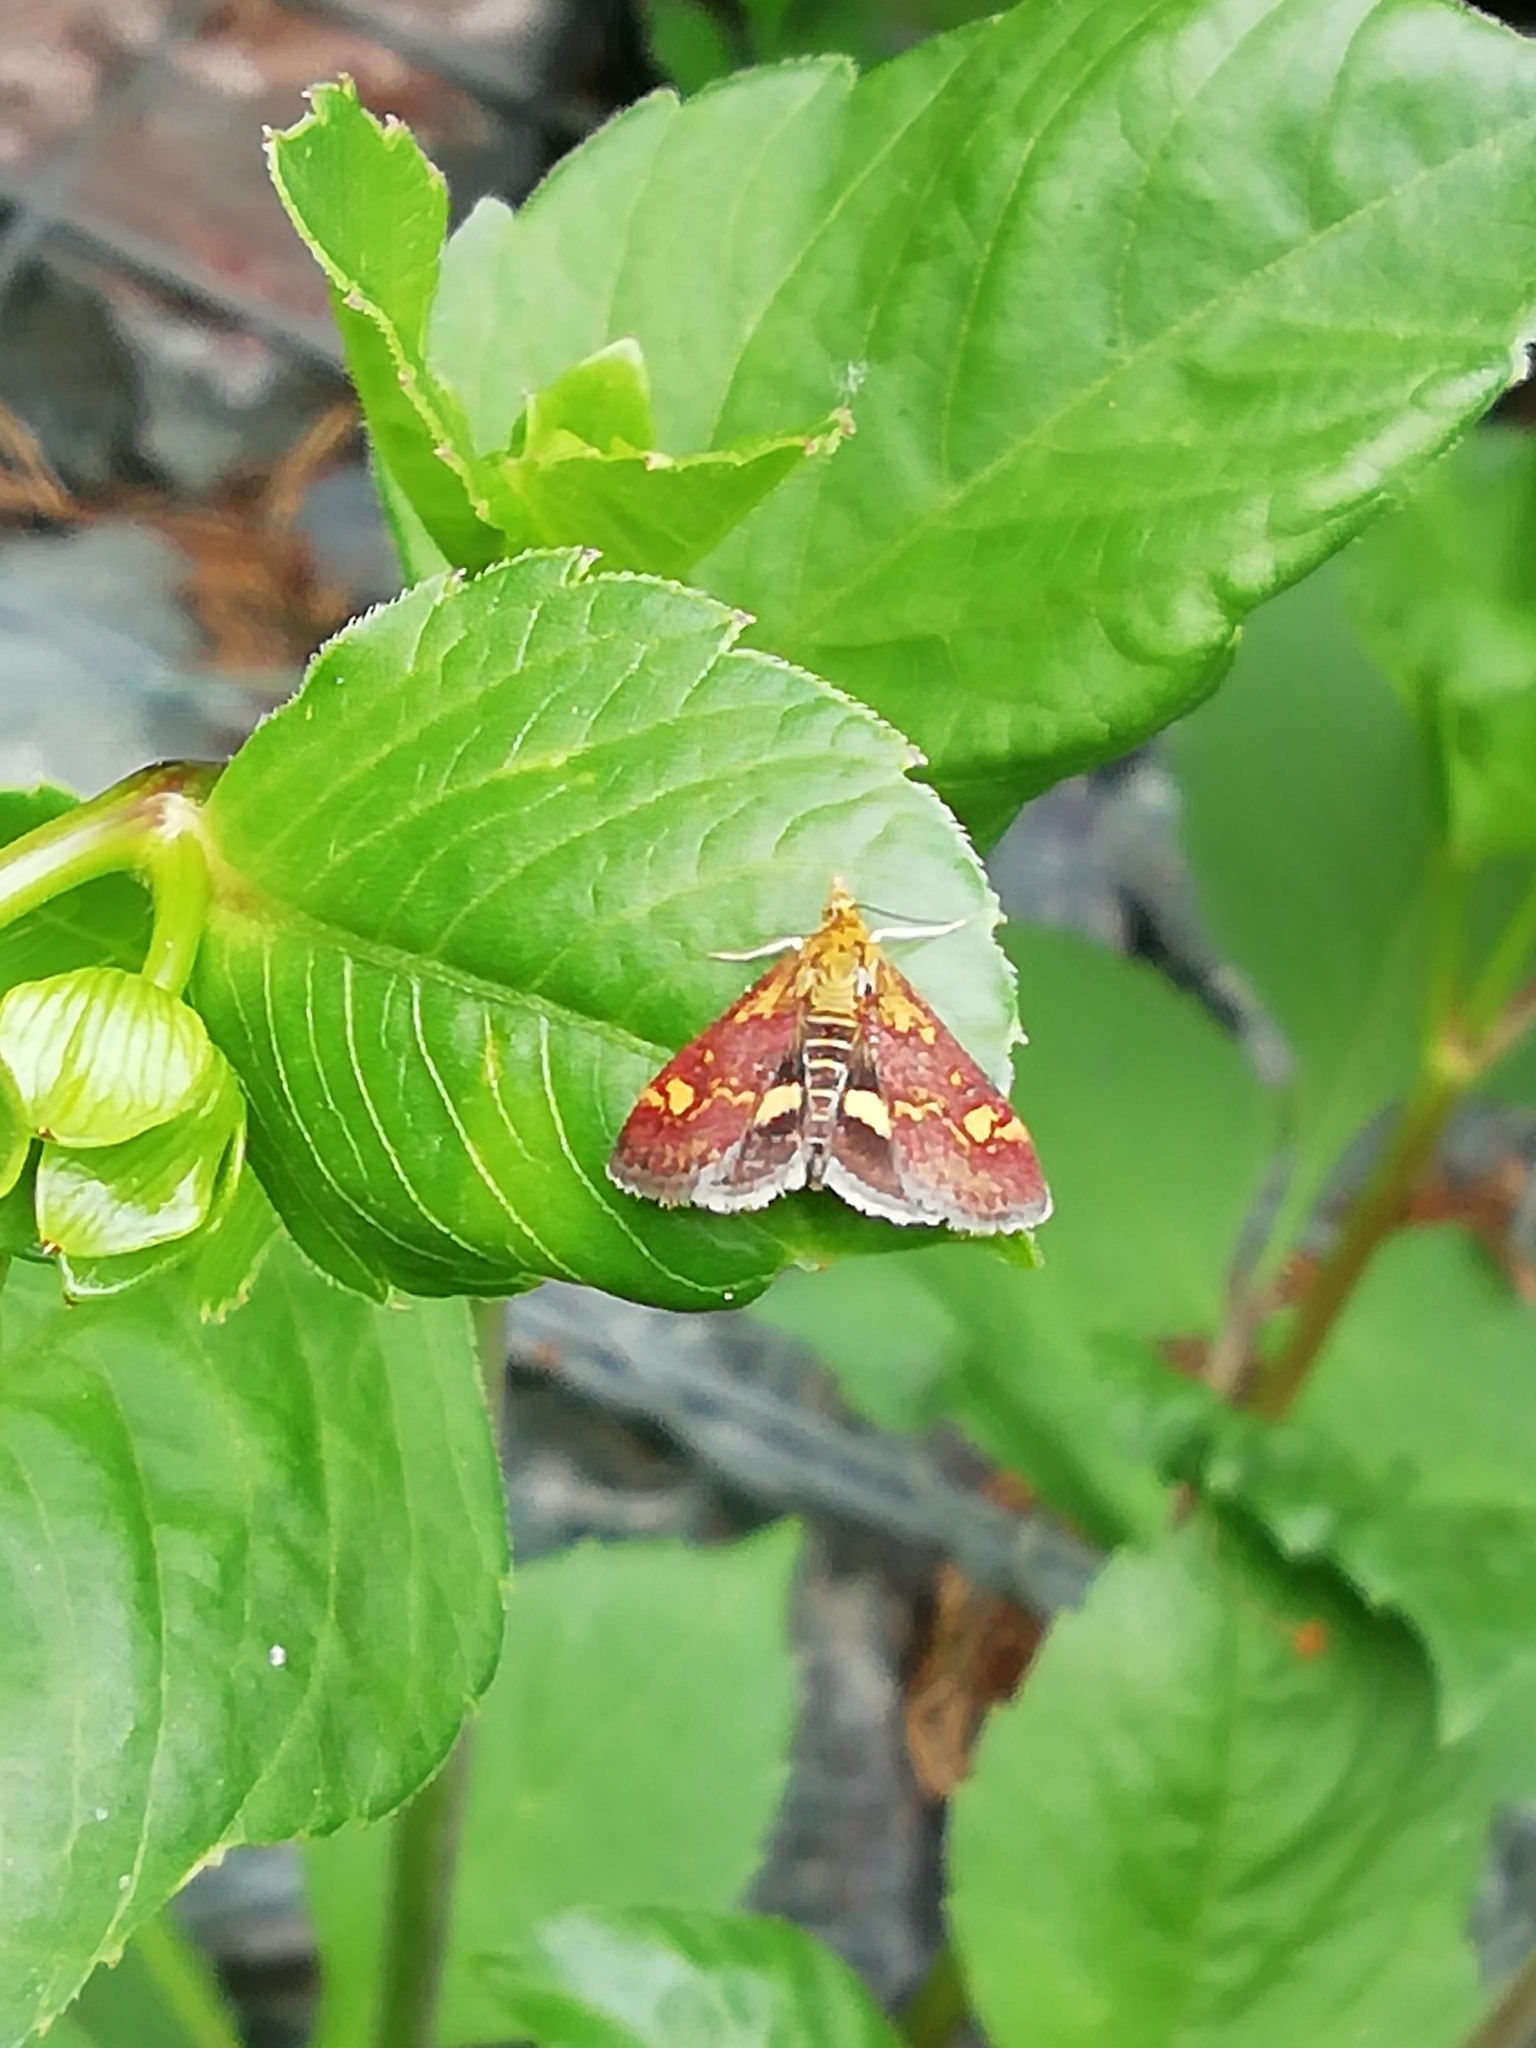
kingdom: Animalia
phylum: Arthropoda
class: Insecta
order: Lepidoptera
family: Crambidae
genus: Pyrausta
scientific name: Pyrausta aurata
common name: Small purple & gold
